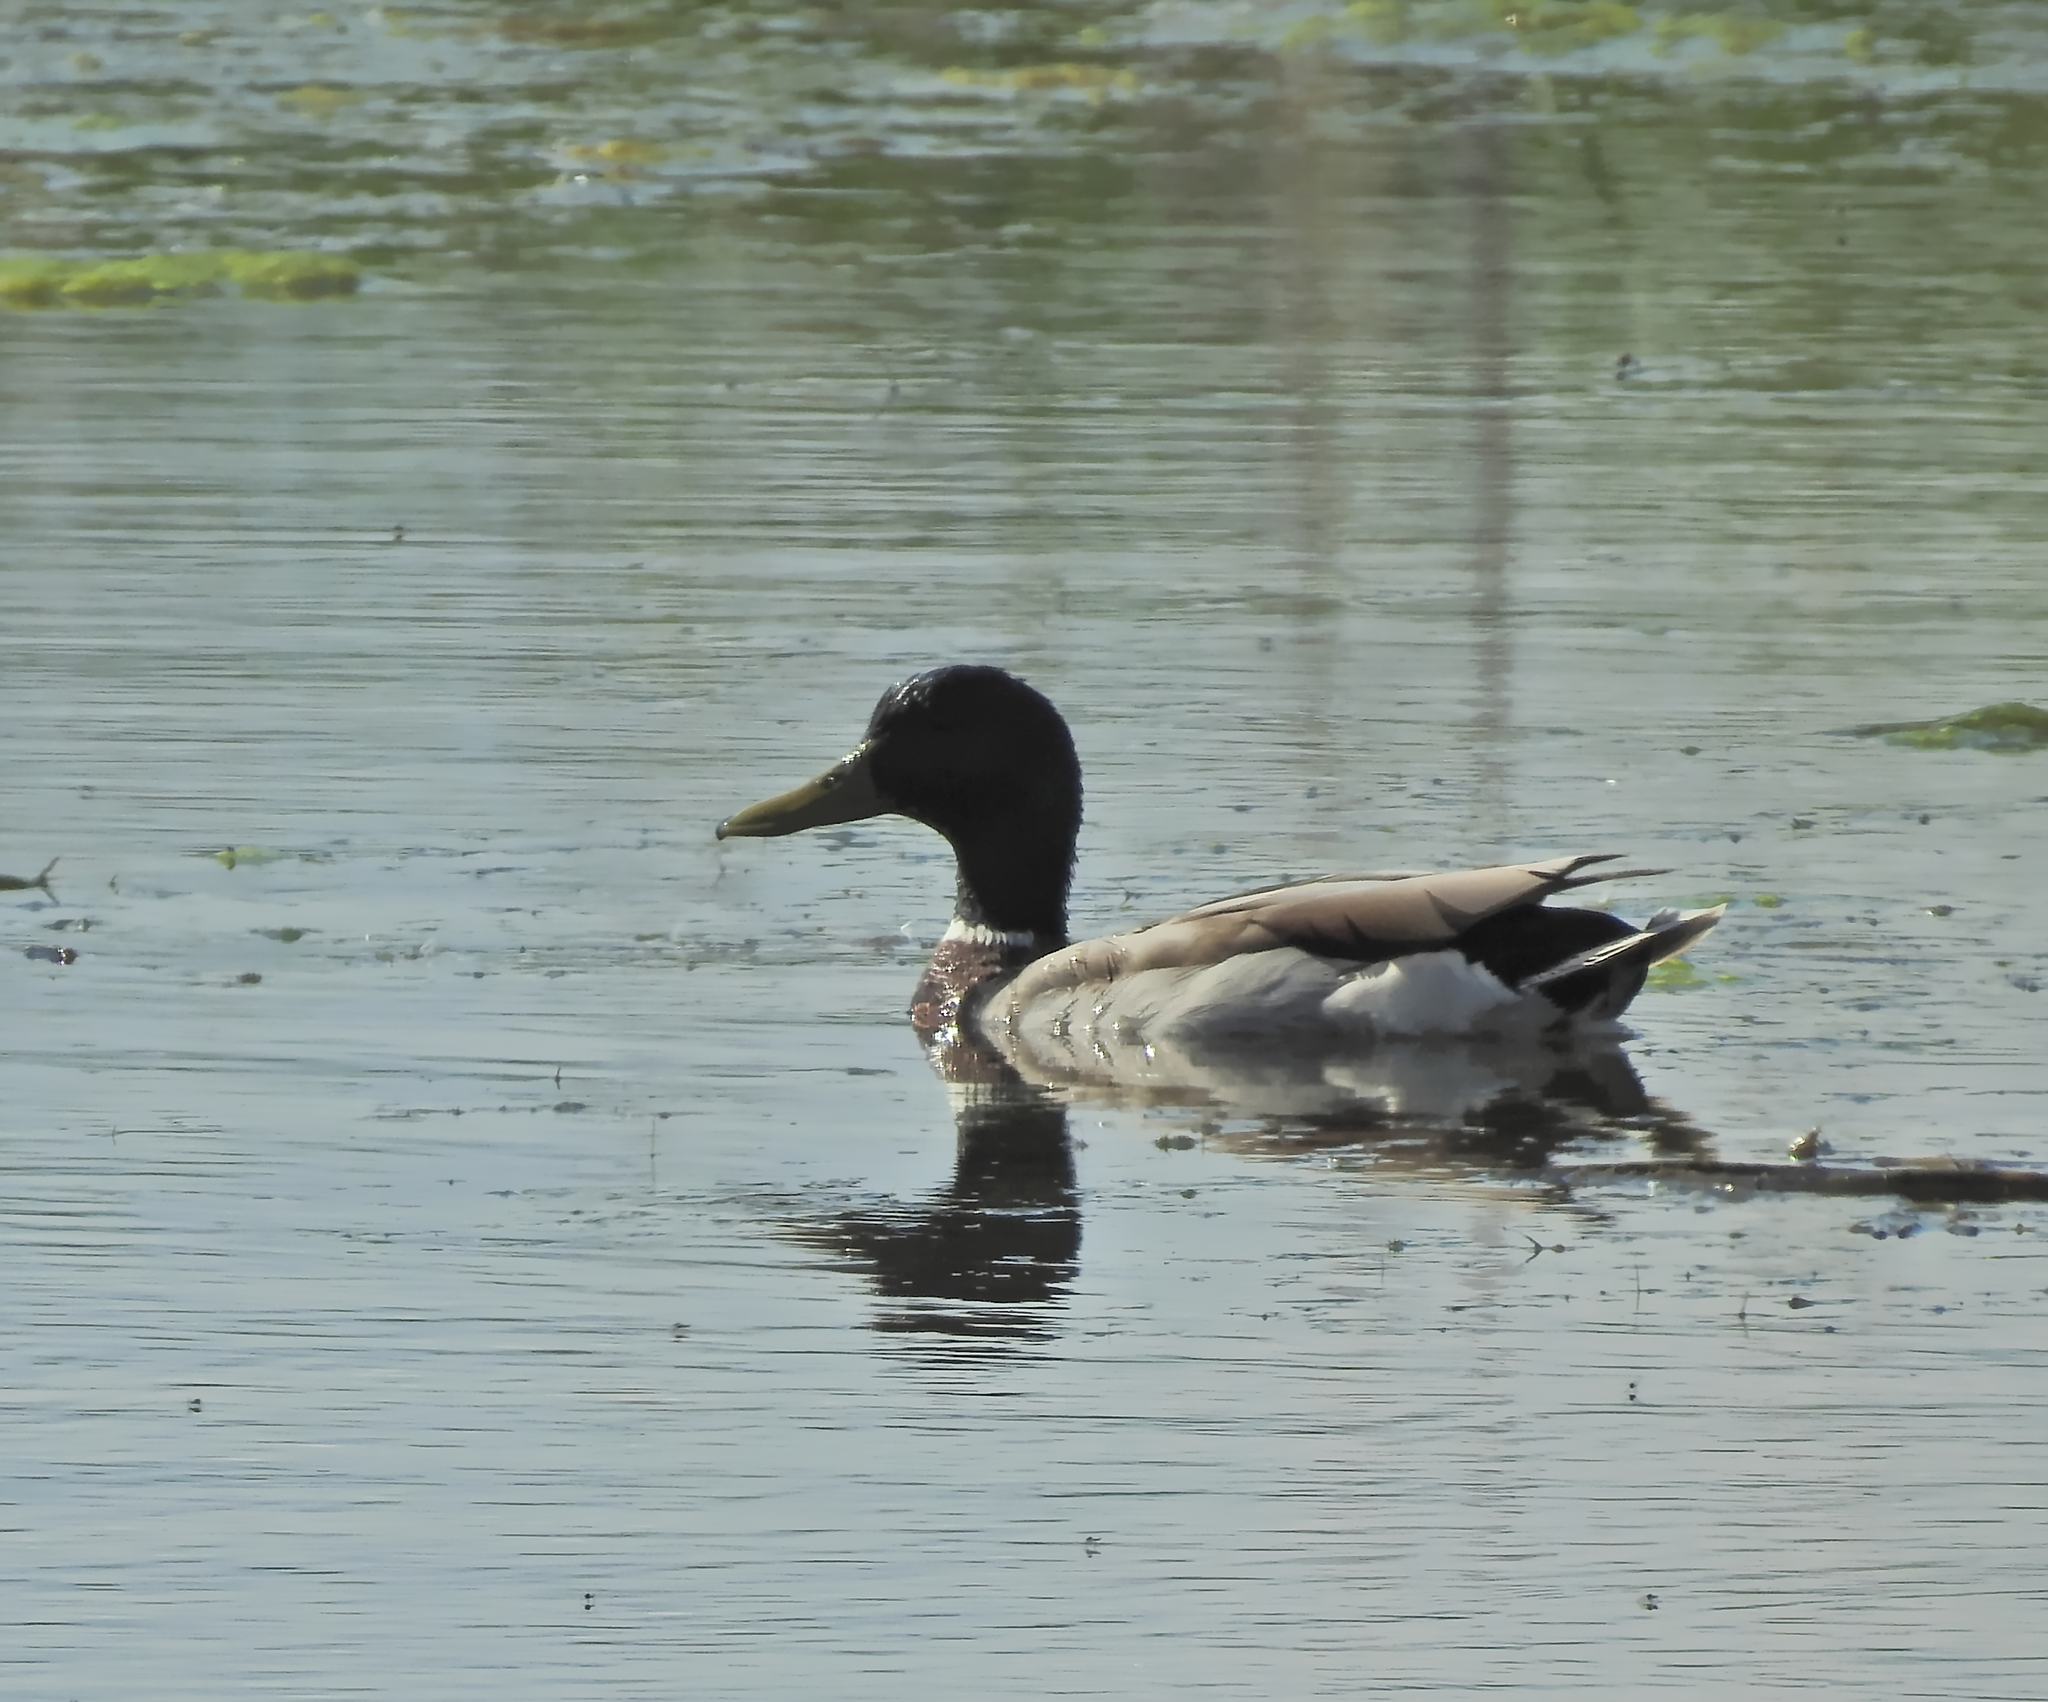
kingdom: Animalia
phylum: Chordata
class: Aves
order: Anseriformes
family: Anatidae
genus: Anas
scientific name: Anas platyrhynchos
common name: Mallard
